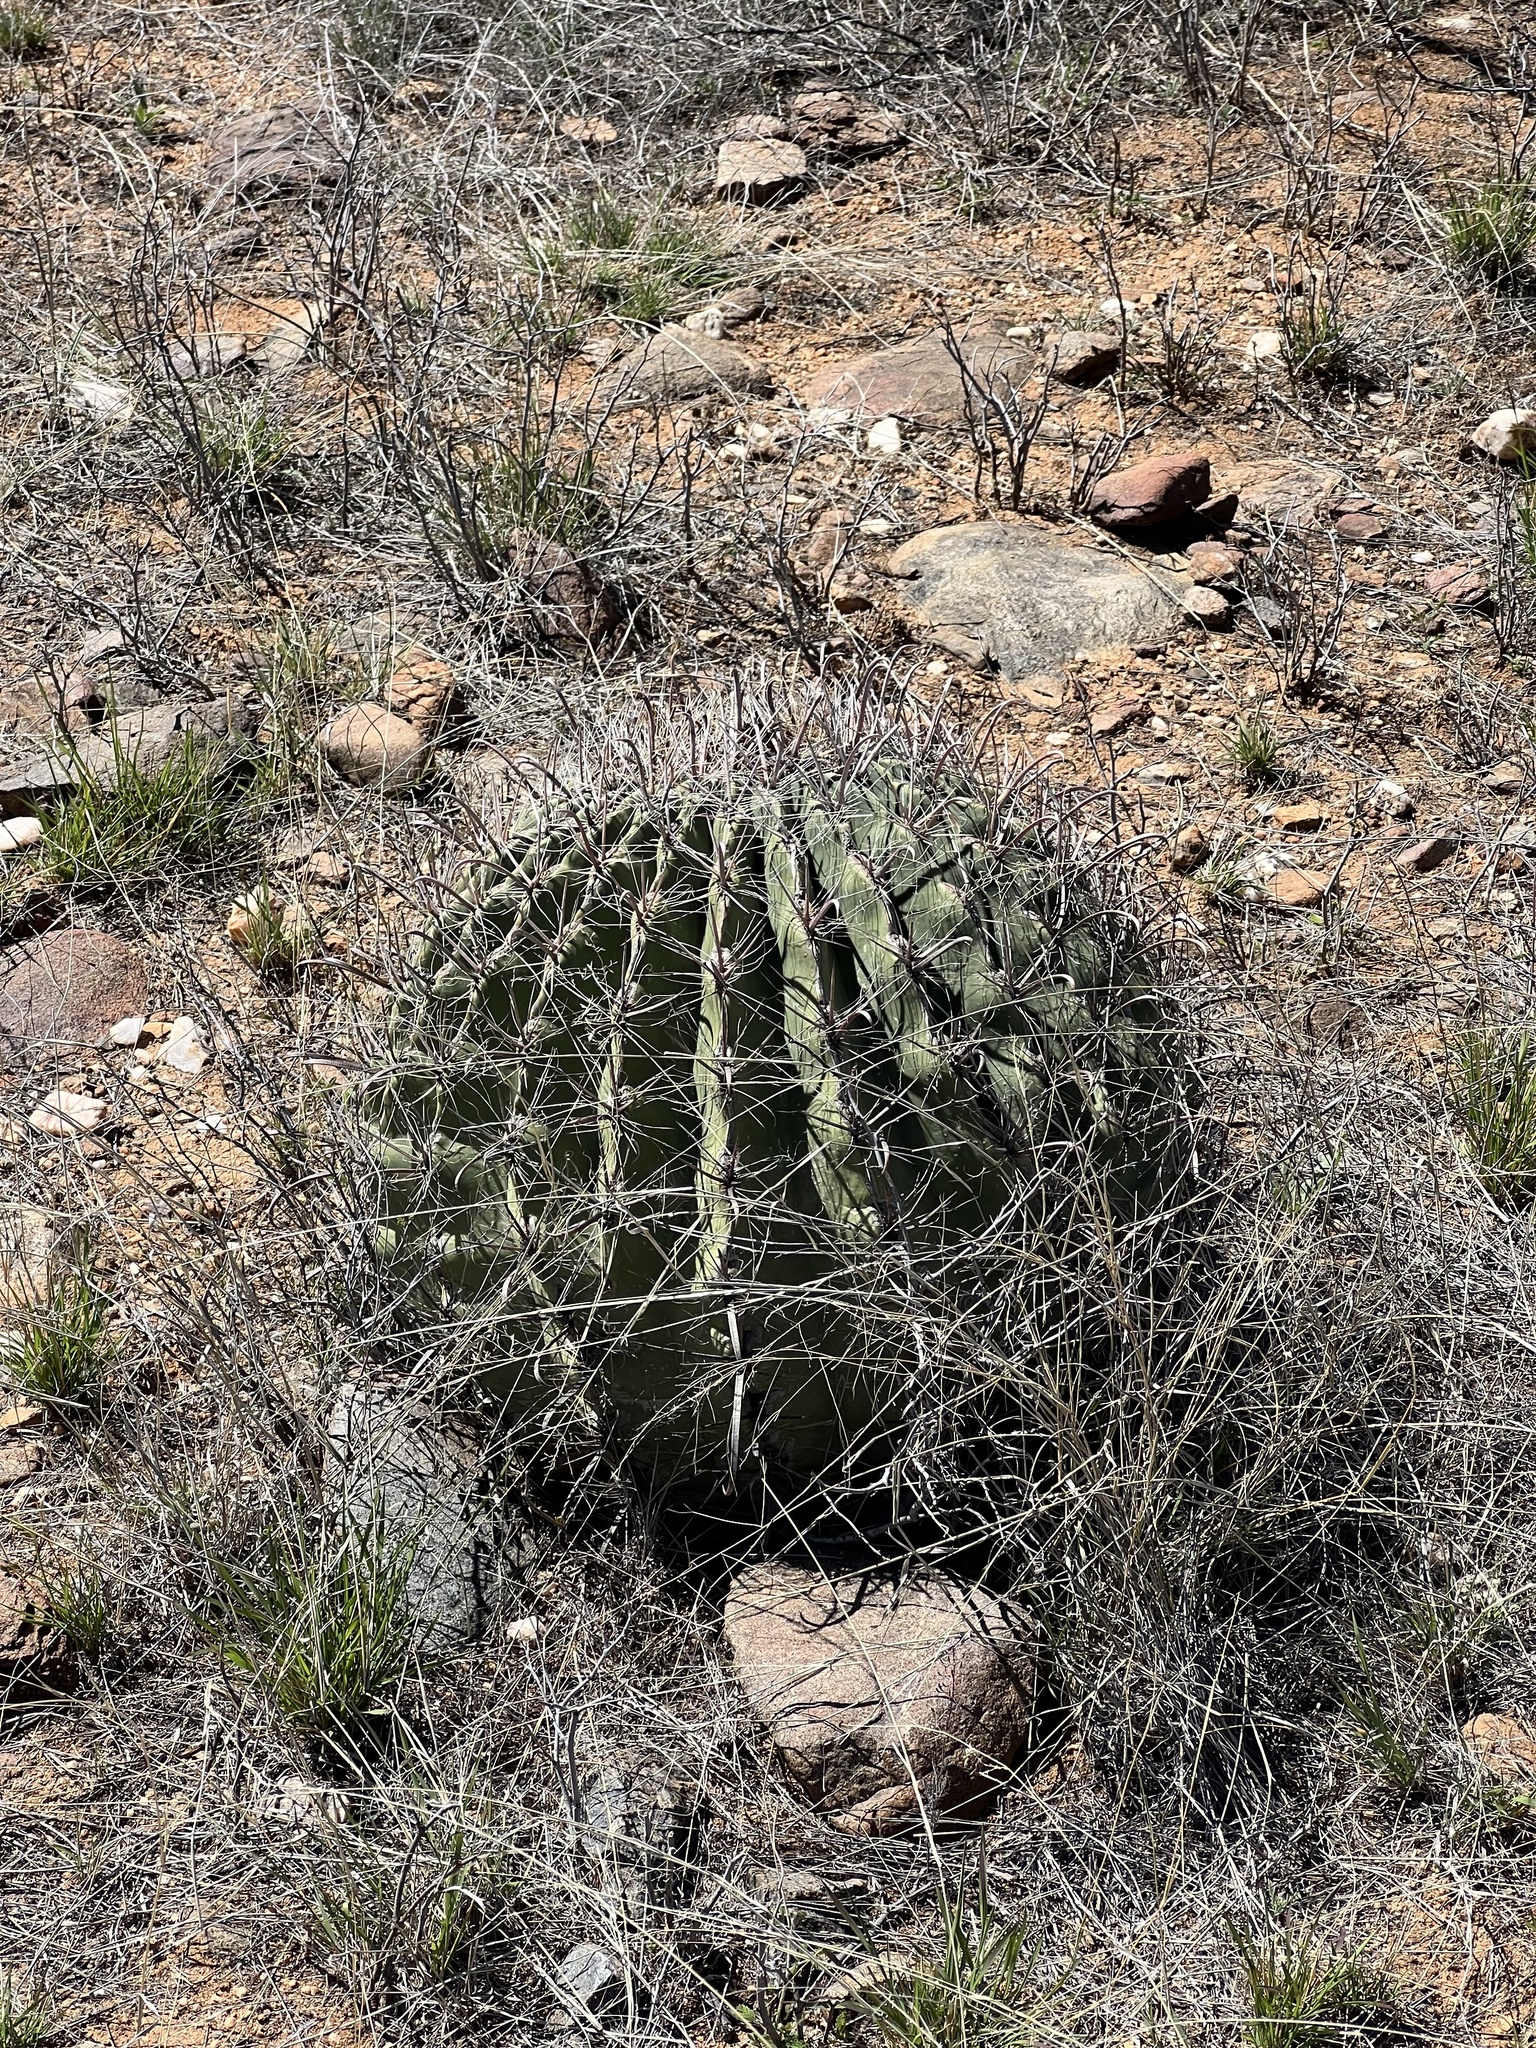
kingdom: Plantae
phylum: Tracheophyta
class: Magnoliopsida
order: Caryophyllales
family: Cactaceae
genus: Ferocactus
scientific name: Ferocactus wislizeni
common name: Candy barrel cactus
